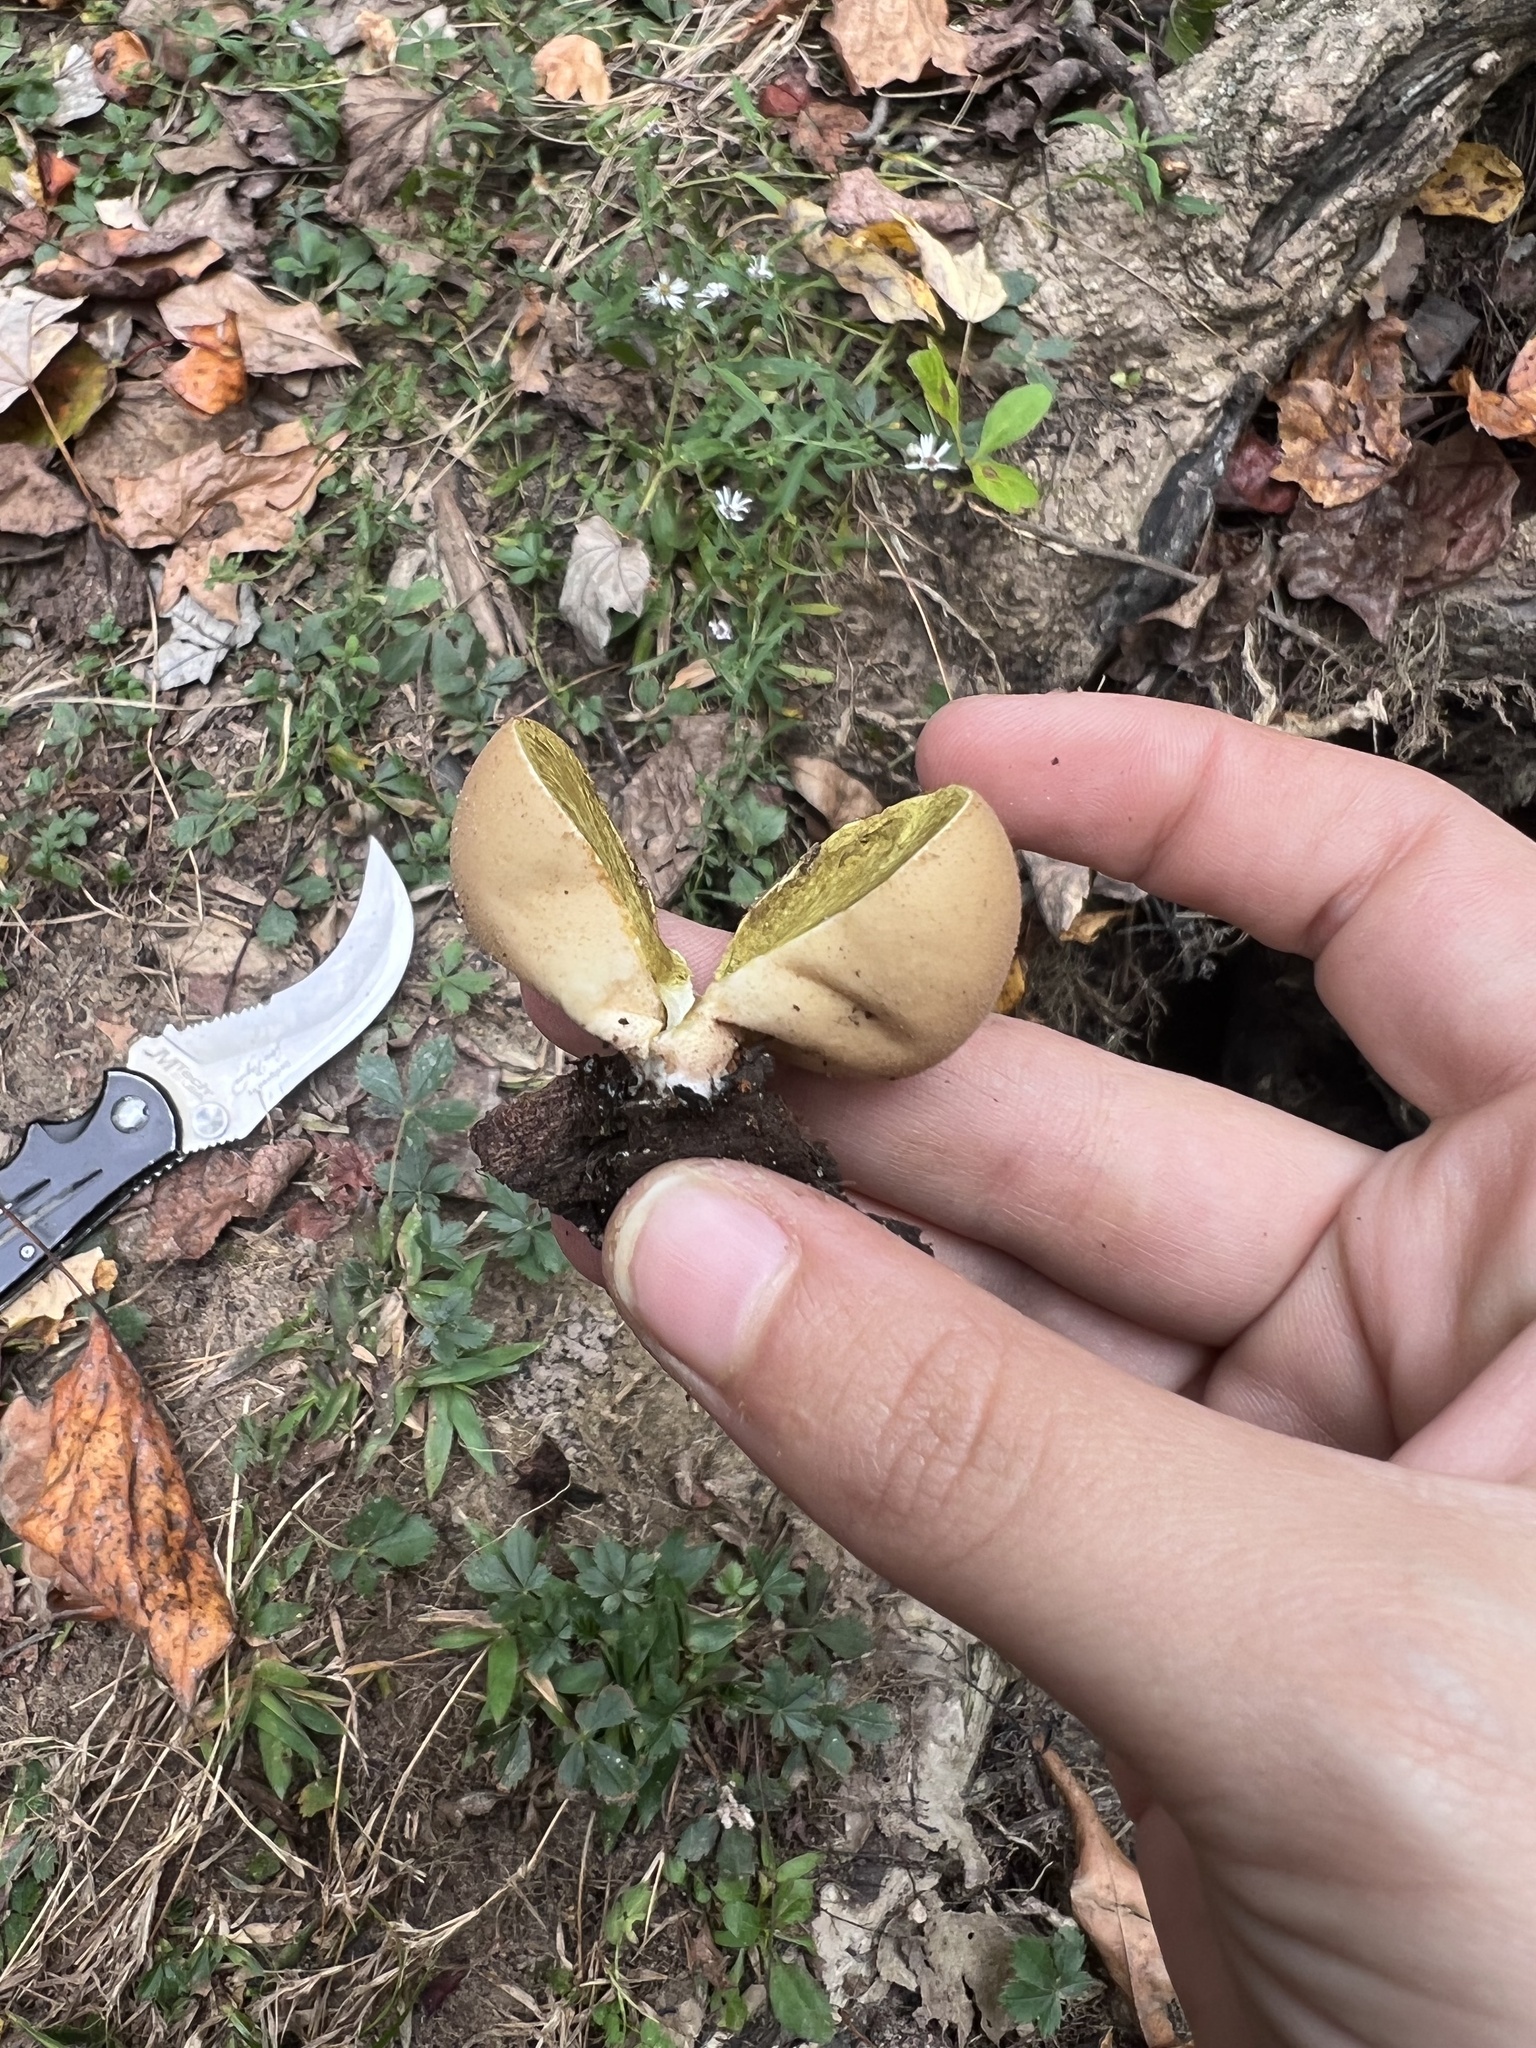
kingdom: Fungi
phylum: Basidiomycota
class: Agaricomycetes
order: Agaricales
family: Lycoperdaceae
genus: Apioperdon
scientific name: Apioperdon pyriforme
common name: Pear-shaped puffball
